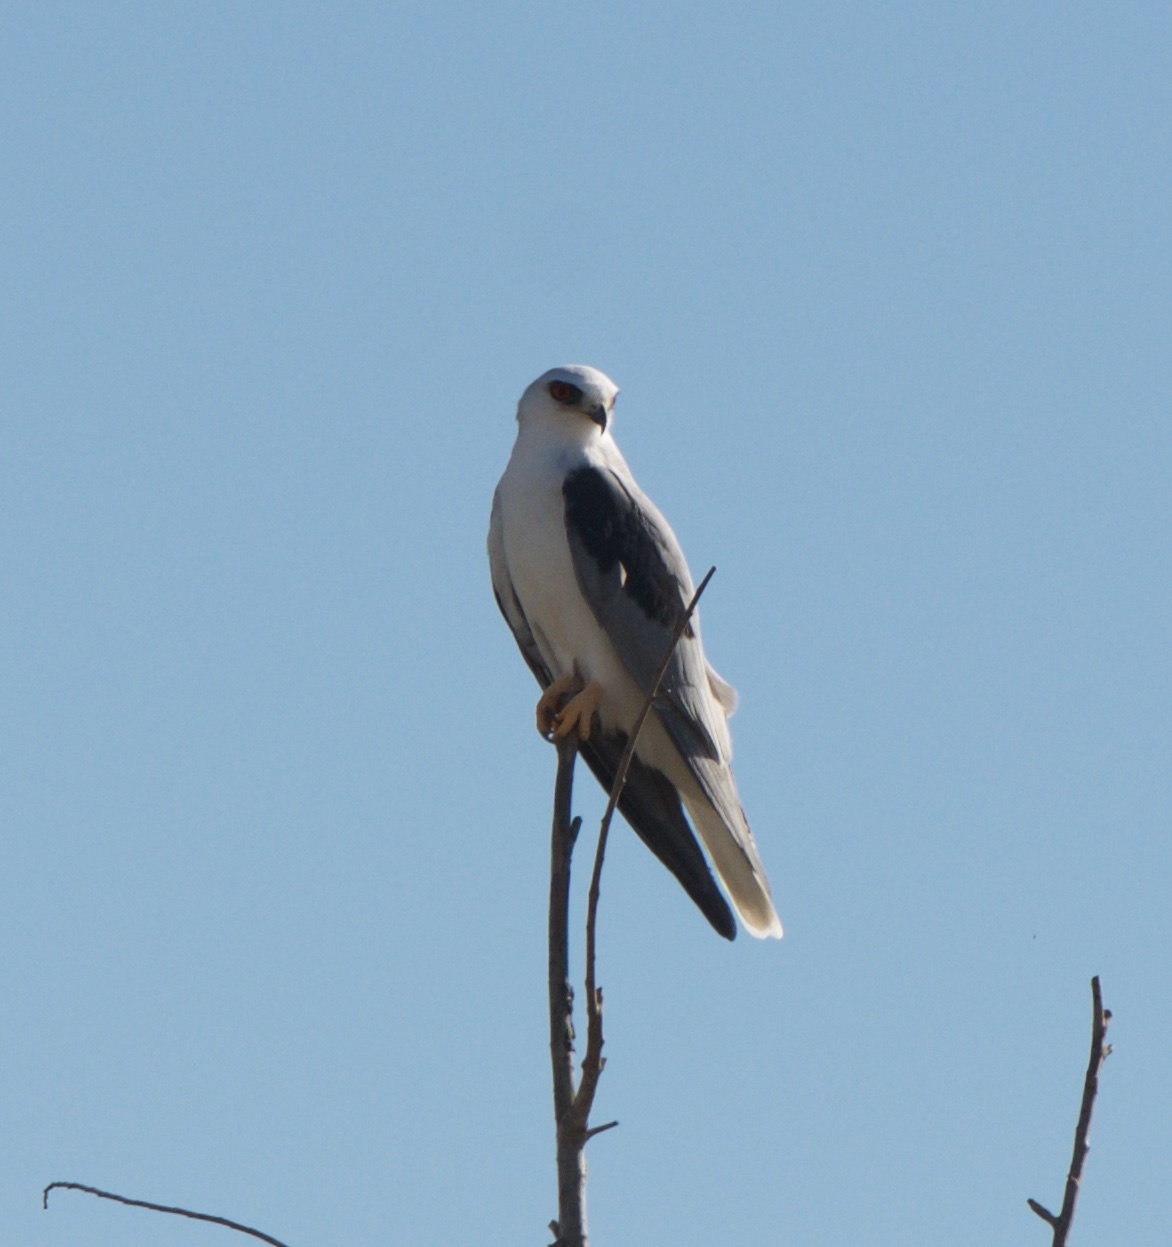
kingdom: Animalia
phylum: Chordata
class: Aves
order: Accipitriformes
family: Accipitridae
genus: Elanus
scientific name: Elanus leucurus
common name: White-tailed kite
